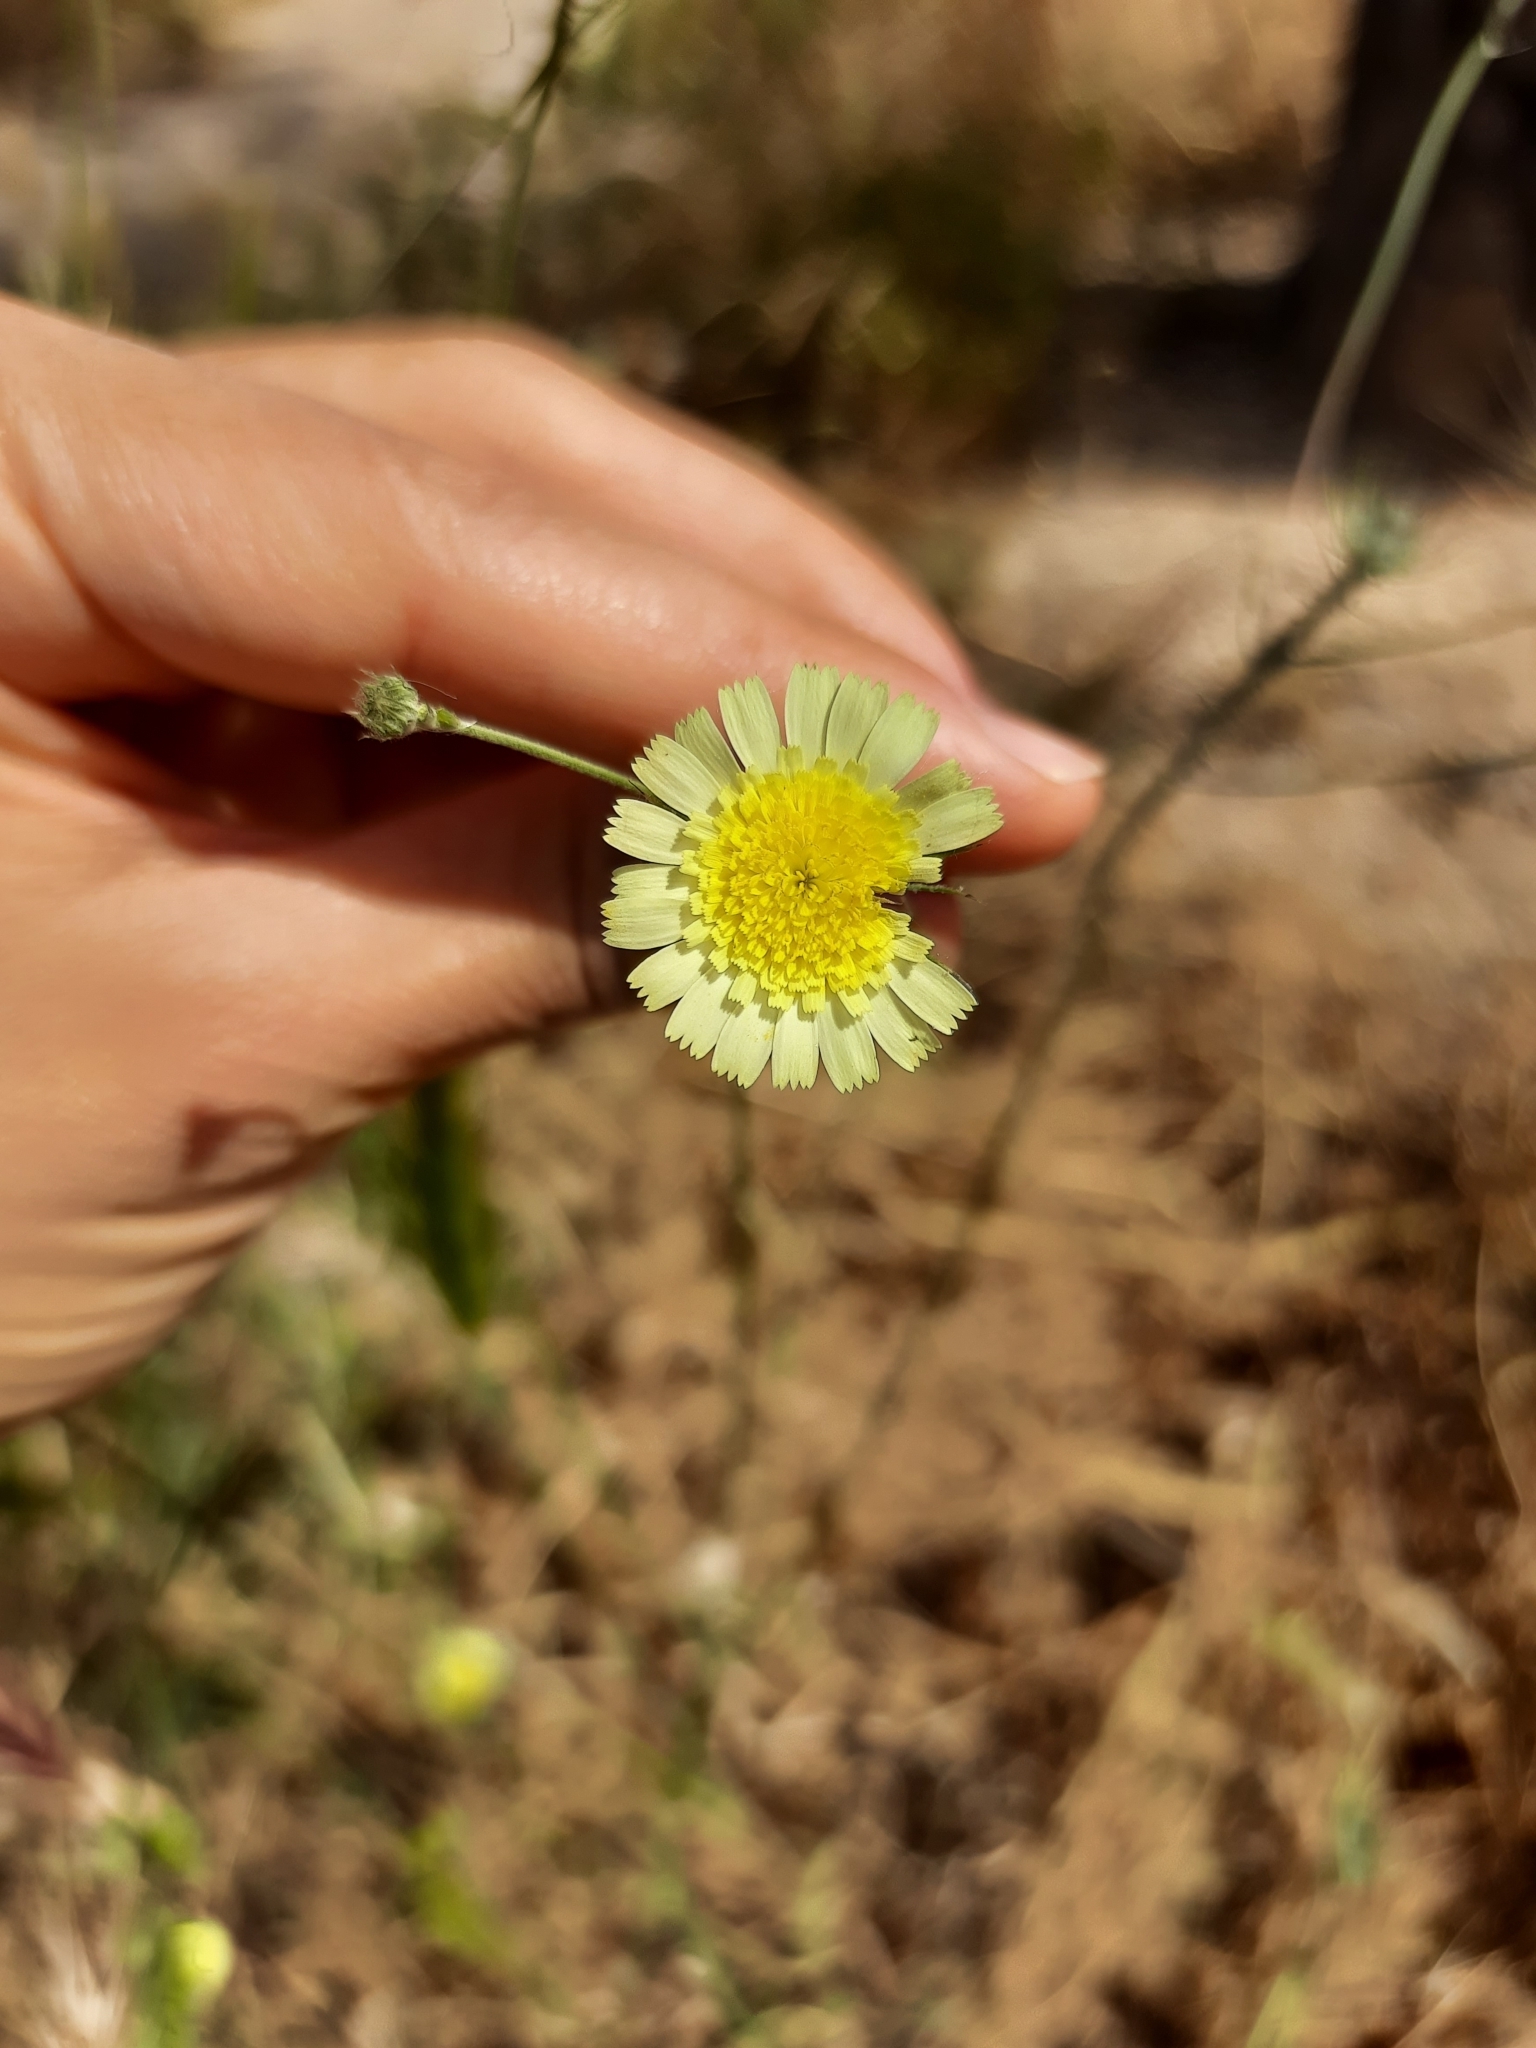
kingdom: Plantae
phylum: Tracheophyta
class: Magnoliopsida
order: Asterales
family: Asteraceae
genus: Andryala
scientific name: Andryala integrifolia
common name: Common andryala
